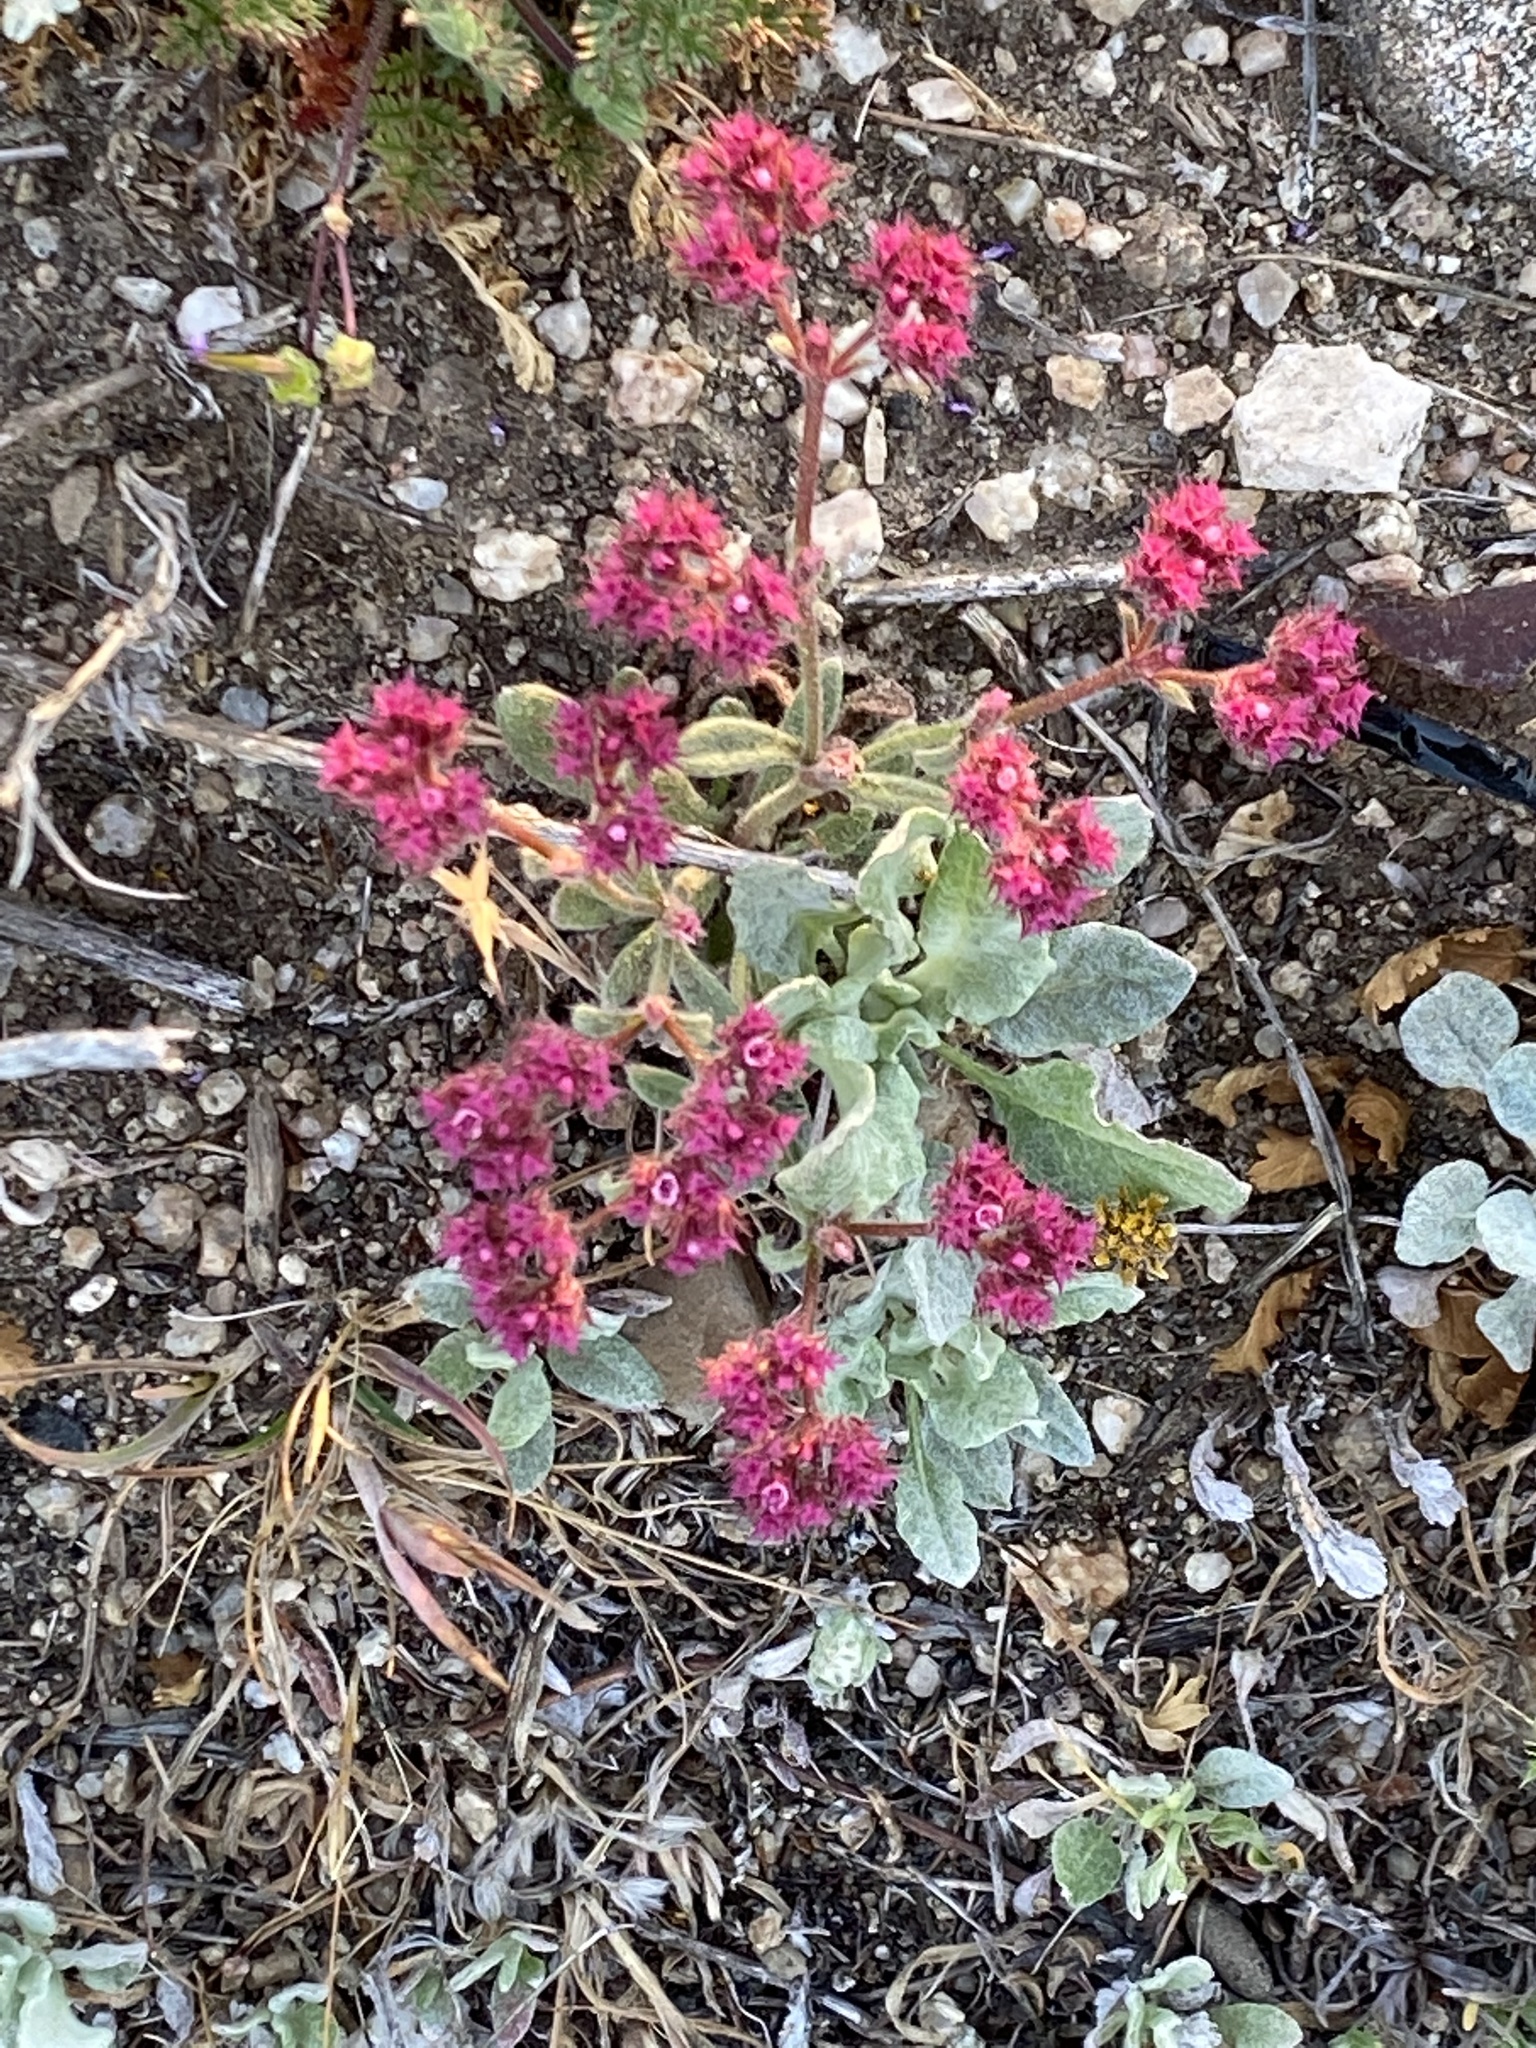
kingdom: Plantae
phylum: Tracheophyta
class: Magnoliopsida
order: Caryophyllales
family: Polygonaceae
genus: Chorizanthe
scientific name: Chorizanthe douglasii
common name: Douglas's spineflower
